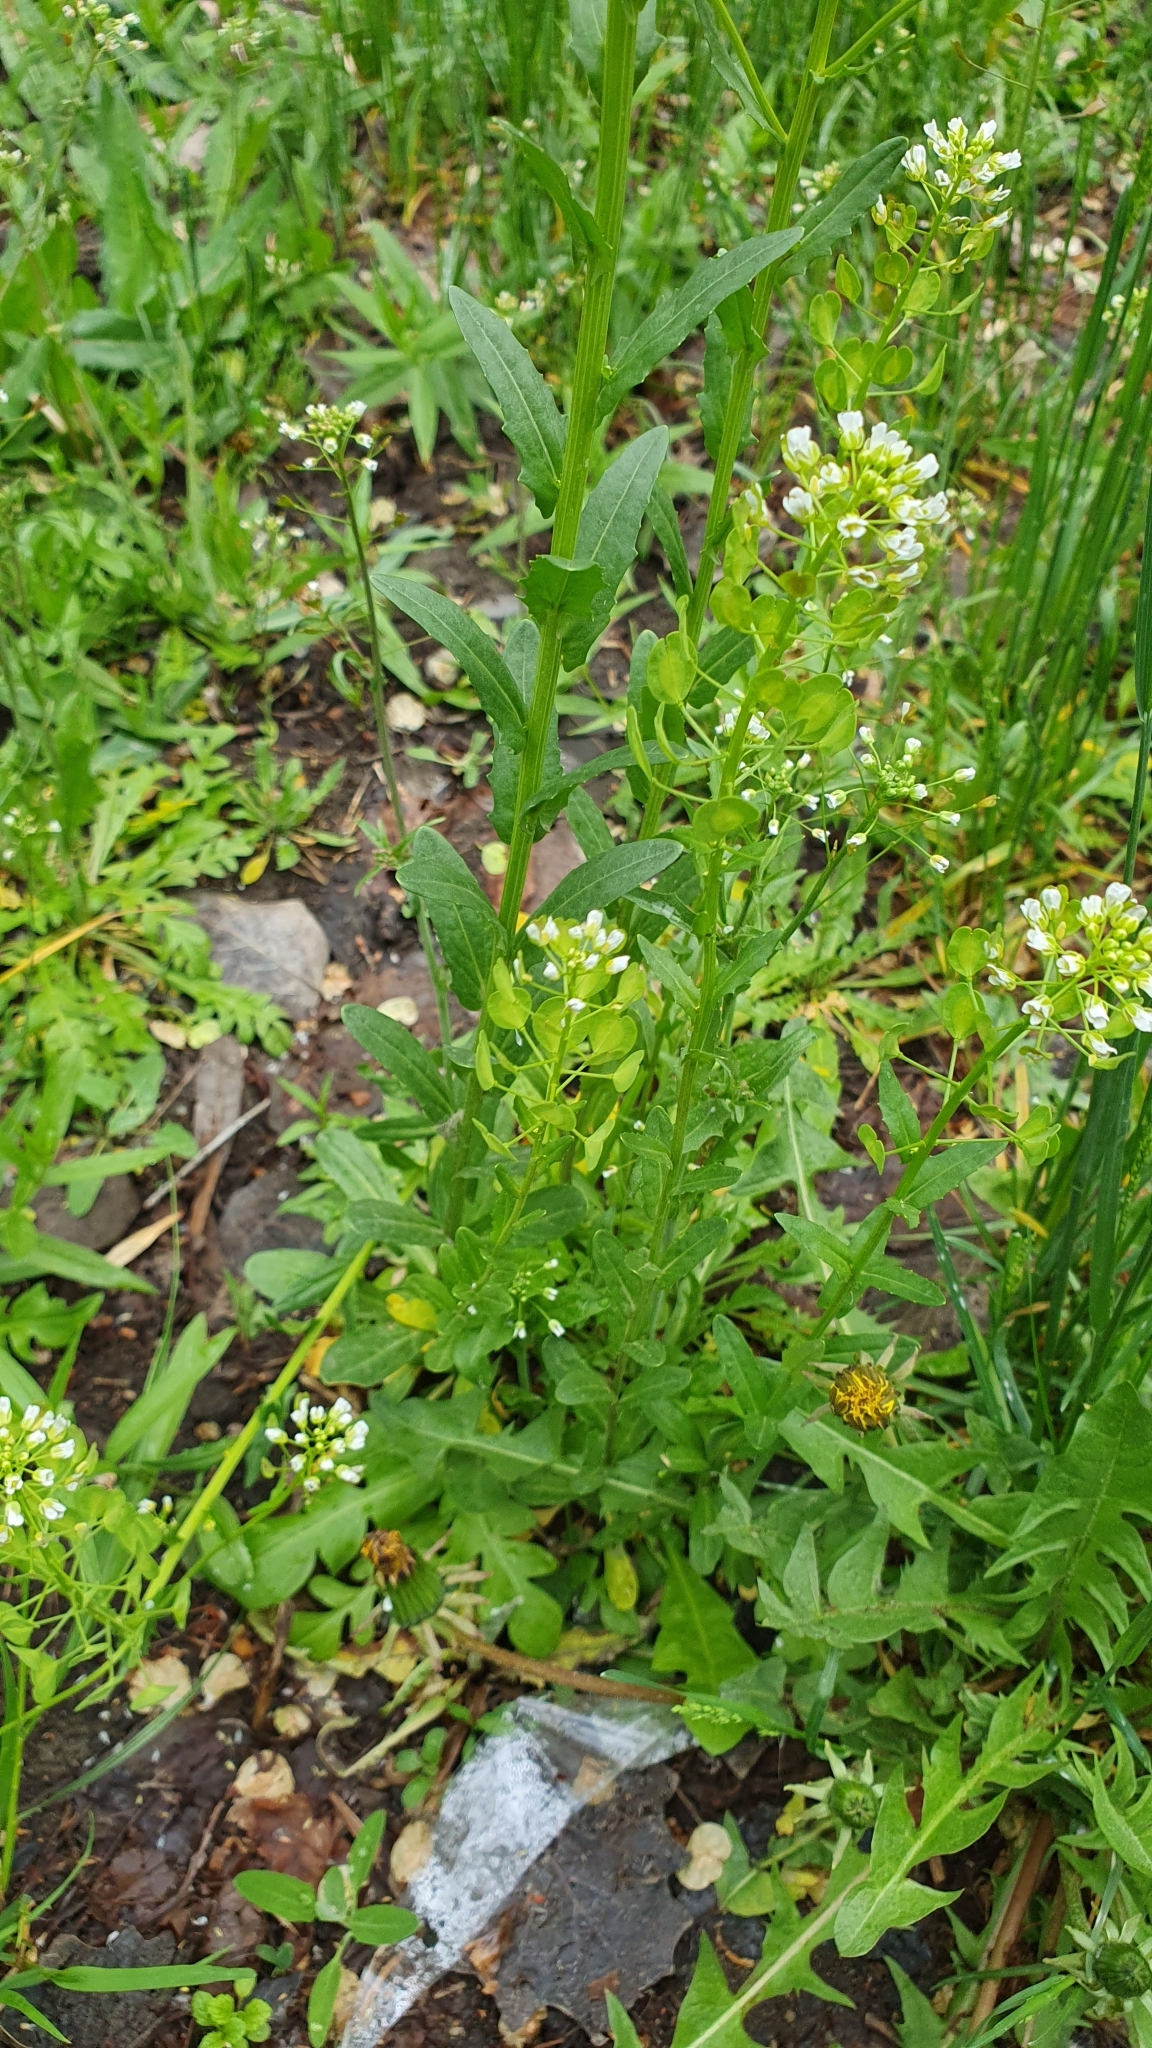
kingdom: Plantae
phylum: Tracheophyta
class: Magnoliopsida
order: Brassicales
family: Brassicaceae
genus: Thlaspi
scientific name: Thlaspi arvense
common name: Field pennycress
